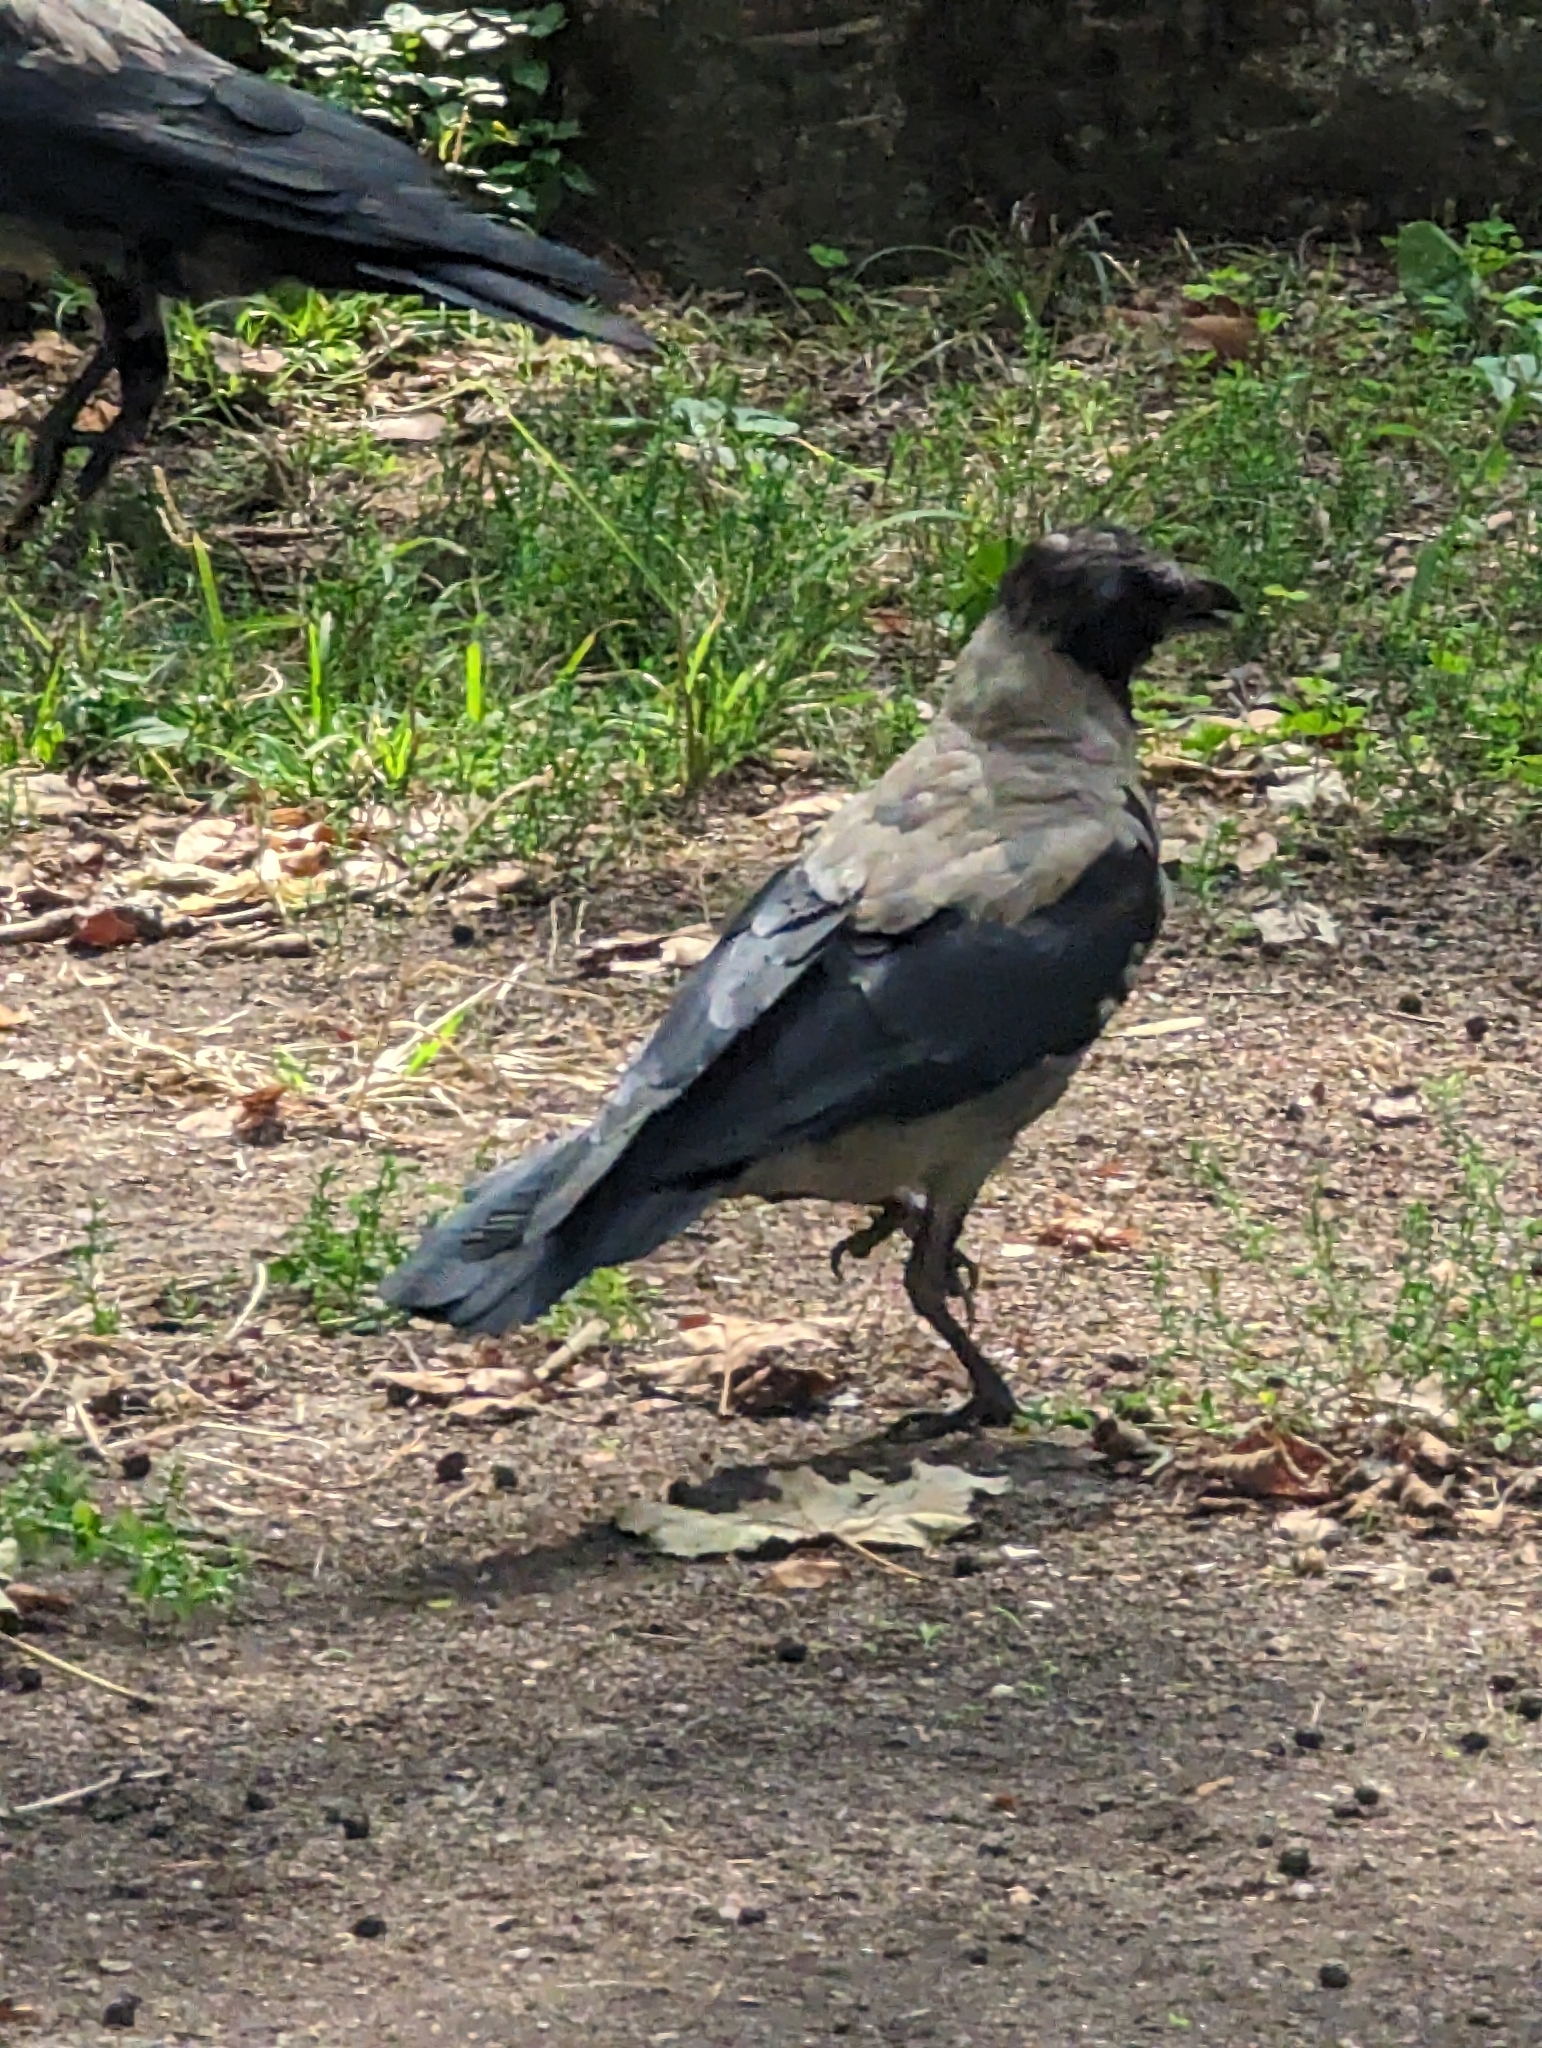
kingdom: Animalia
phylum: Chordata
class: Aves
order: Passeriformes
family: Corvidae
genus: Corvus
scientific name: Corvus cornix
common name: Hooded crow
